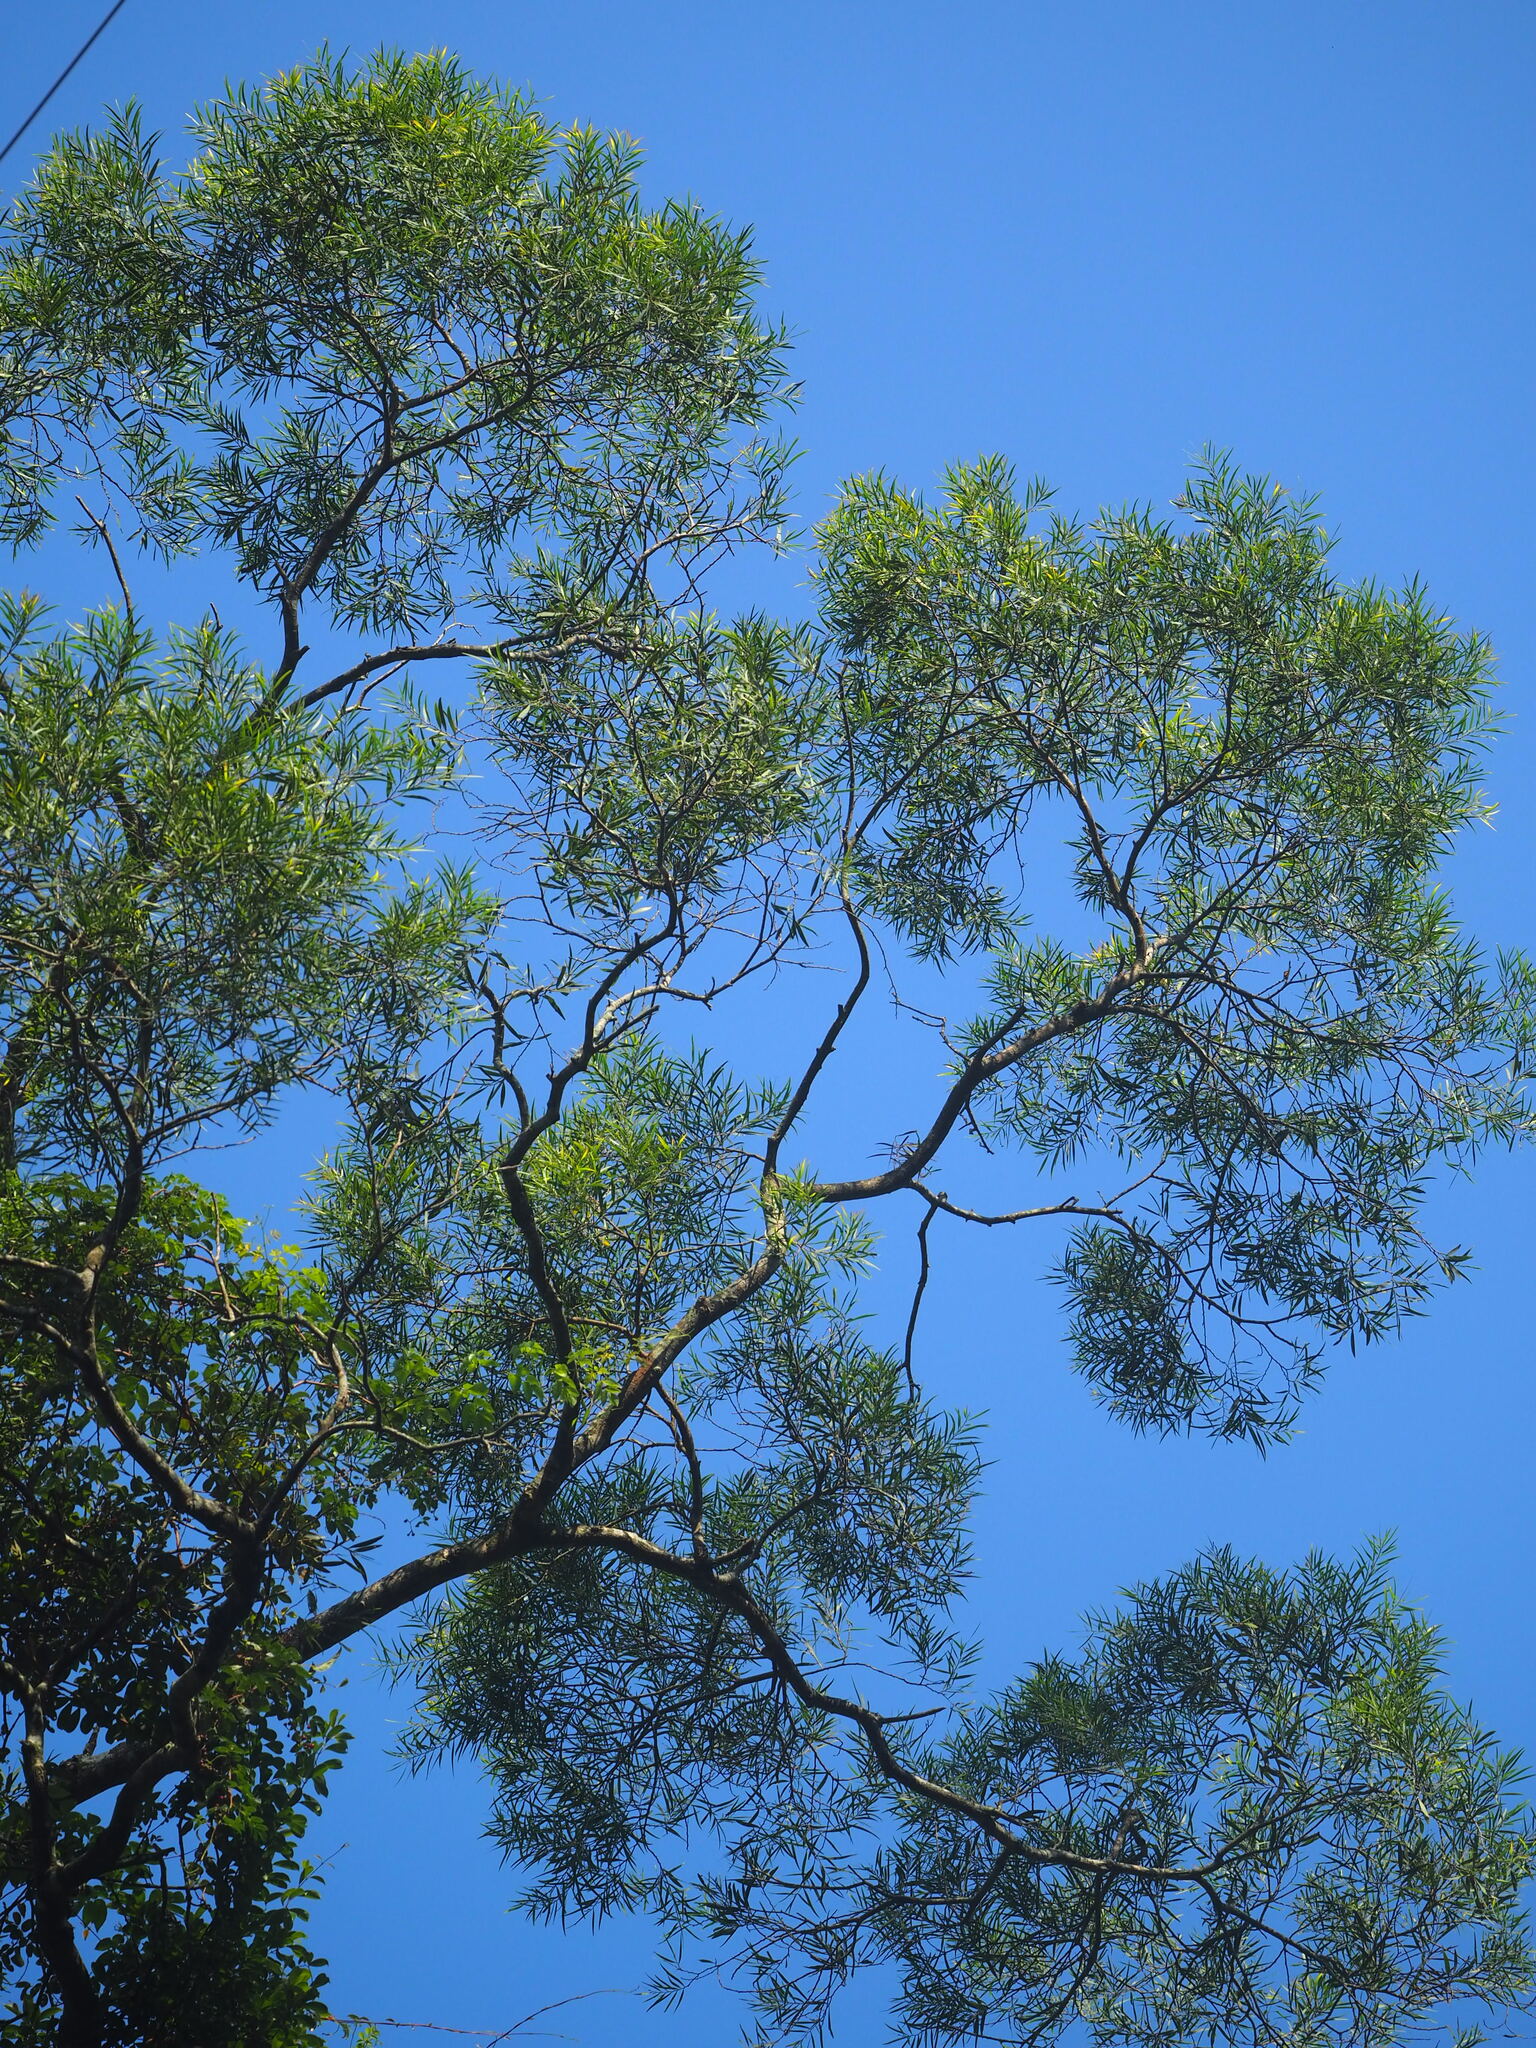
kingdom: Plantae
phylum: Tracheophyta
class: Magnoliopsida
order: Fabales
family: Fabaceae
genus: Acacia
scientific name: Acacia confusa
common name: Formosan koa
